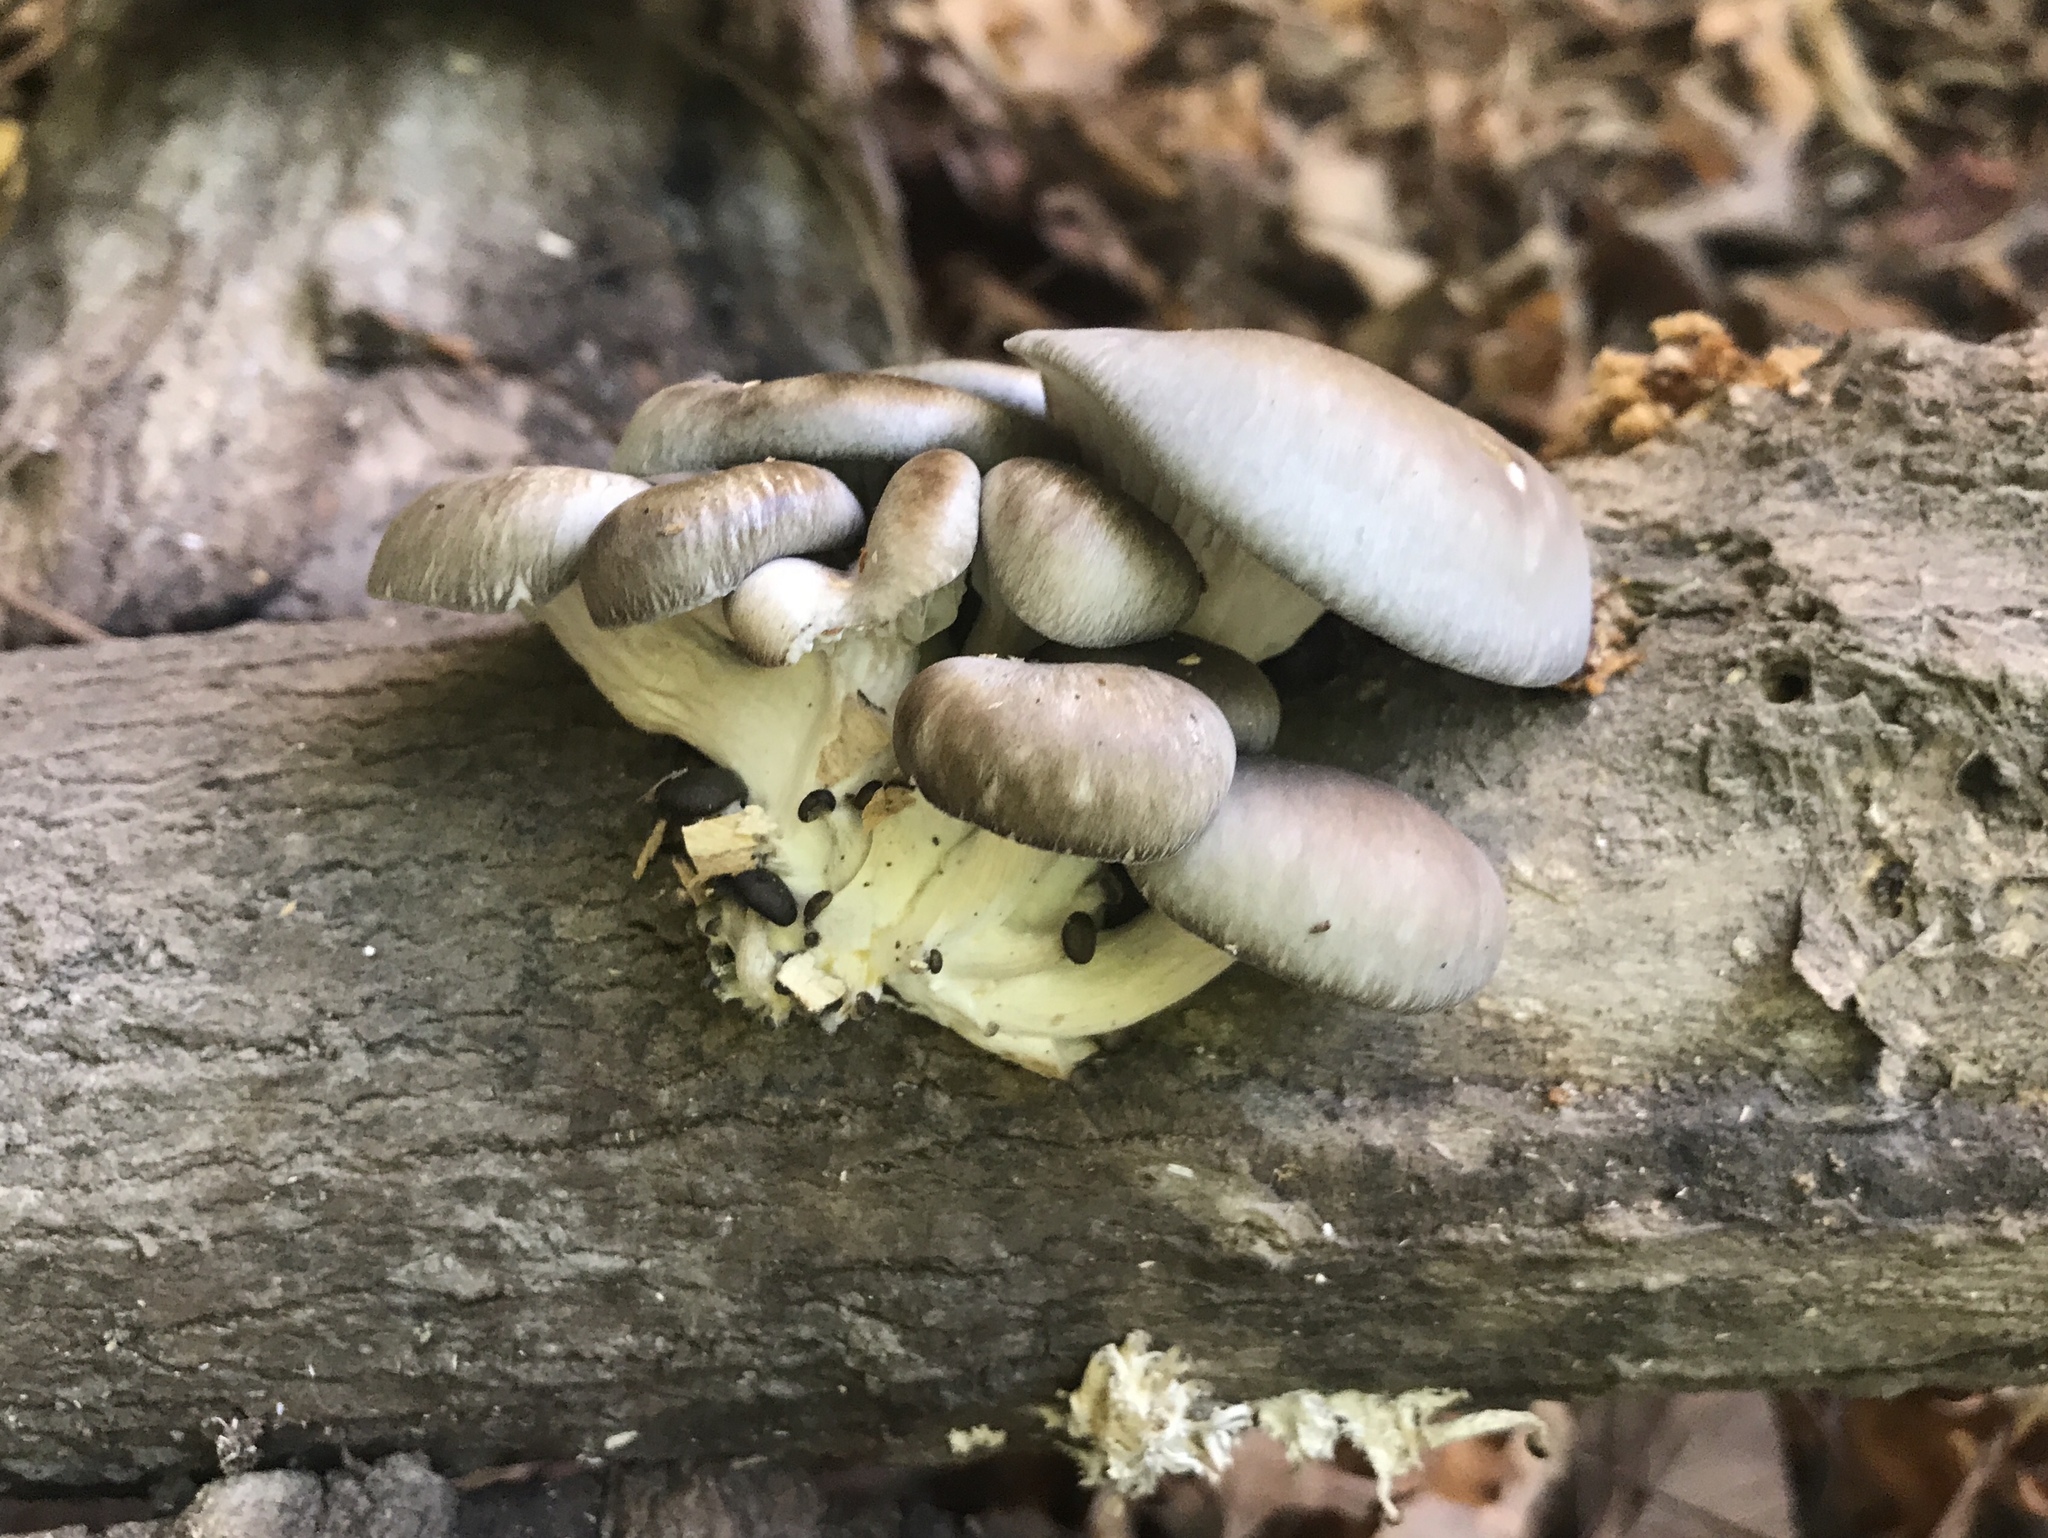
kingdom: Fungi
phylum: Basidiomycota
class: Agaricomycetes
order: Agaricales
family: Pleurotaceae
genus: Pleurotus
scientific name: Pleurotus ostreatus
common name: Oyster mushroom
